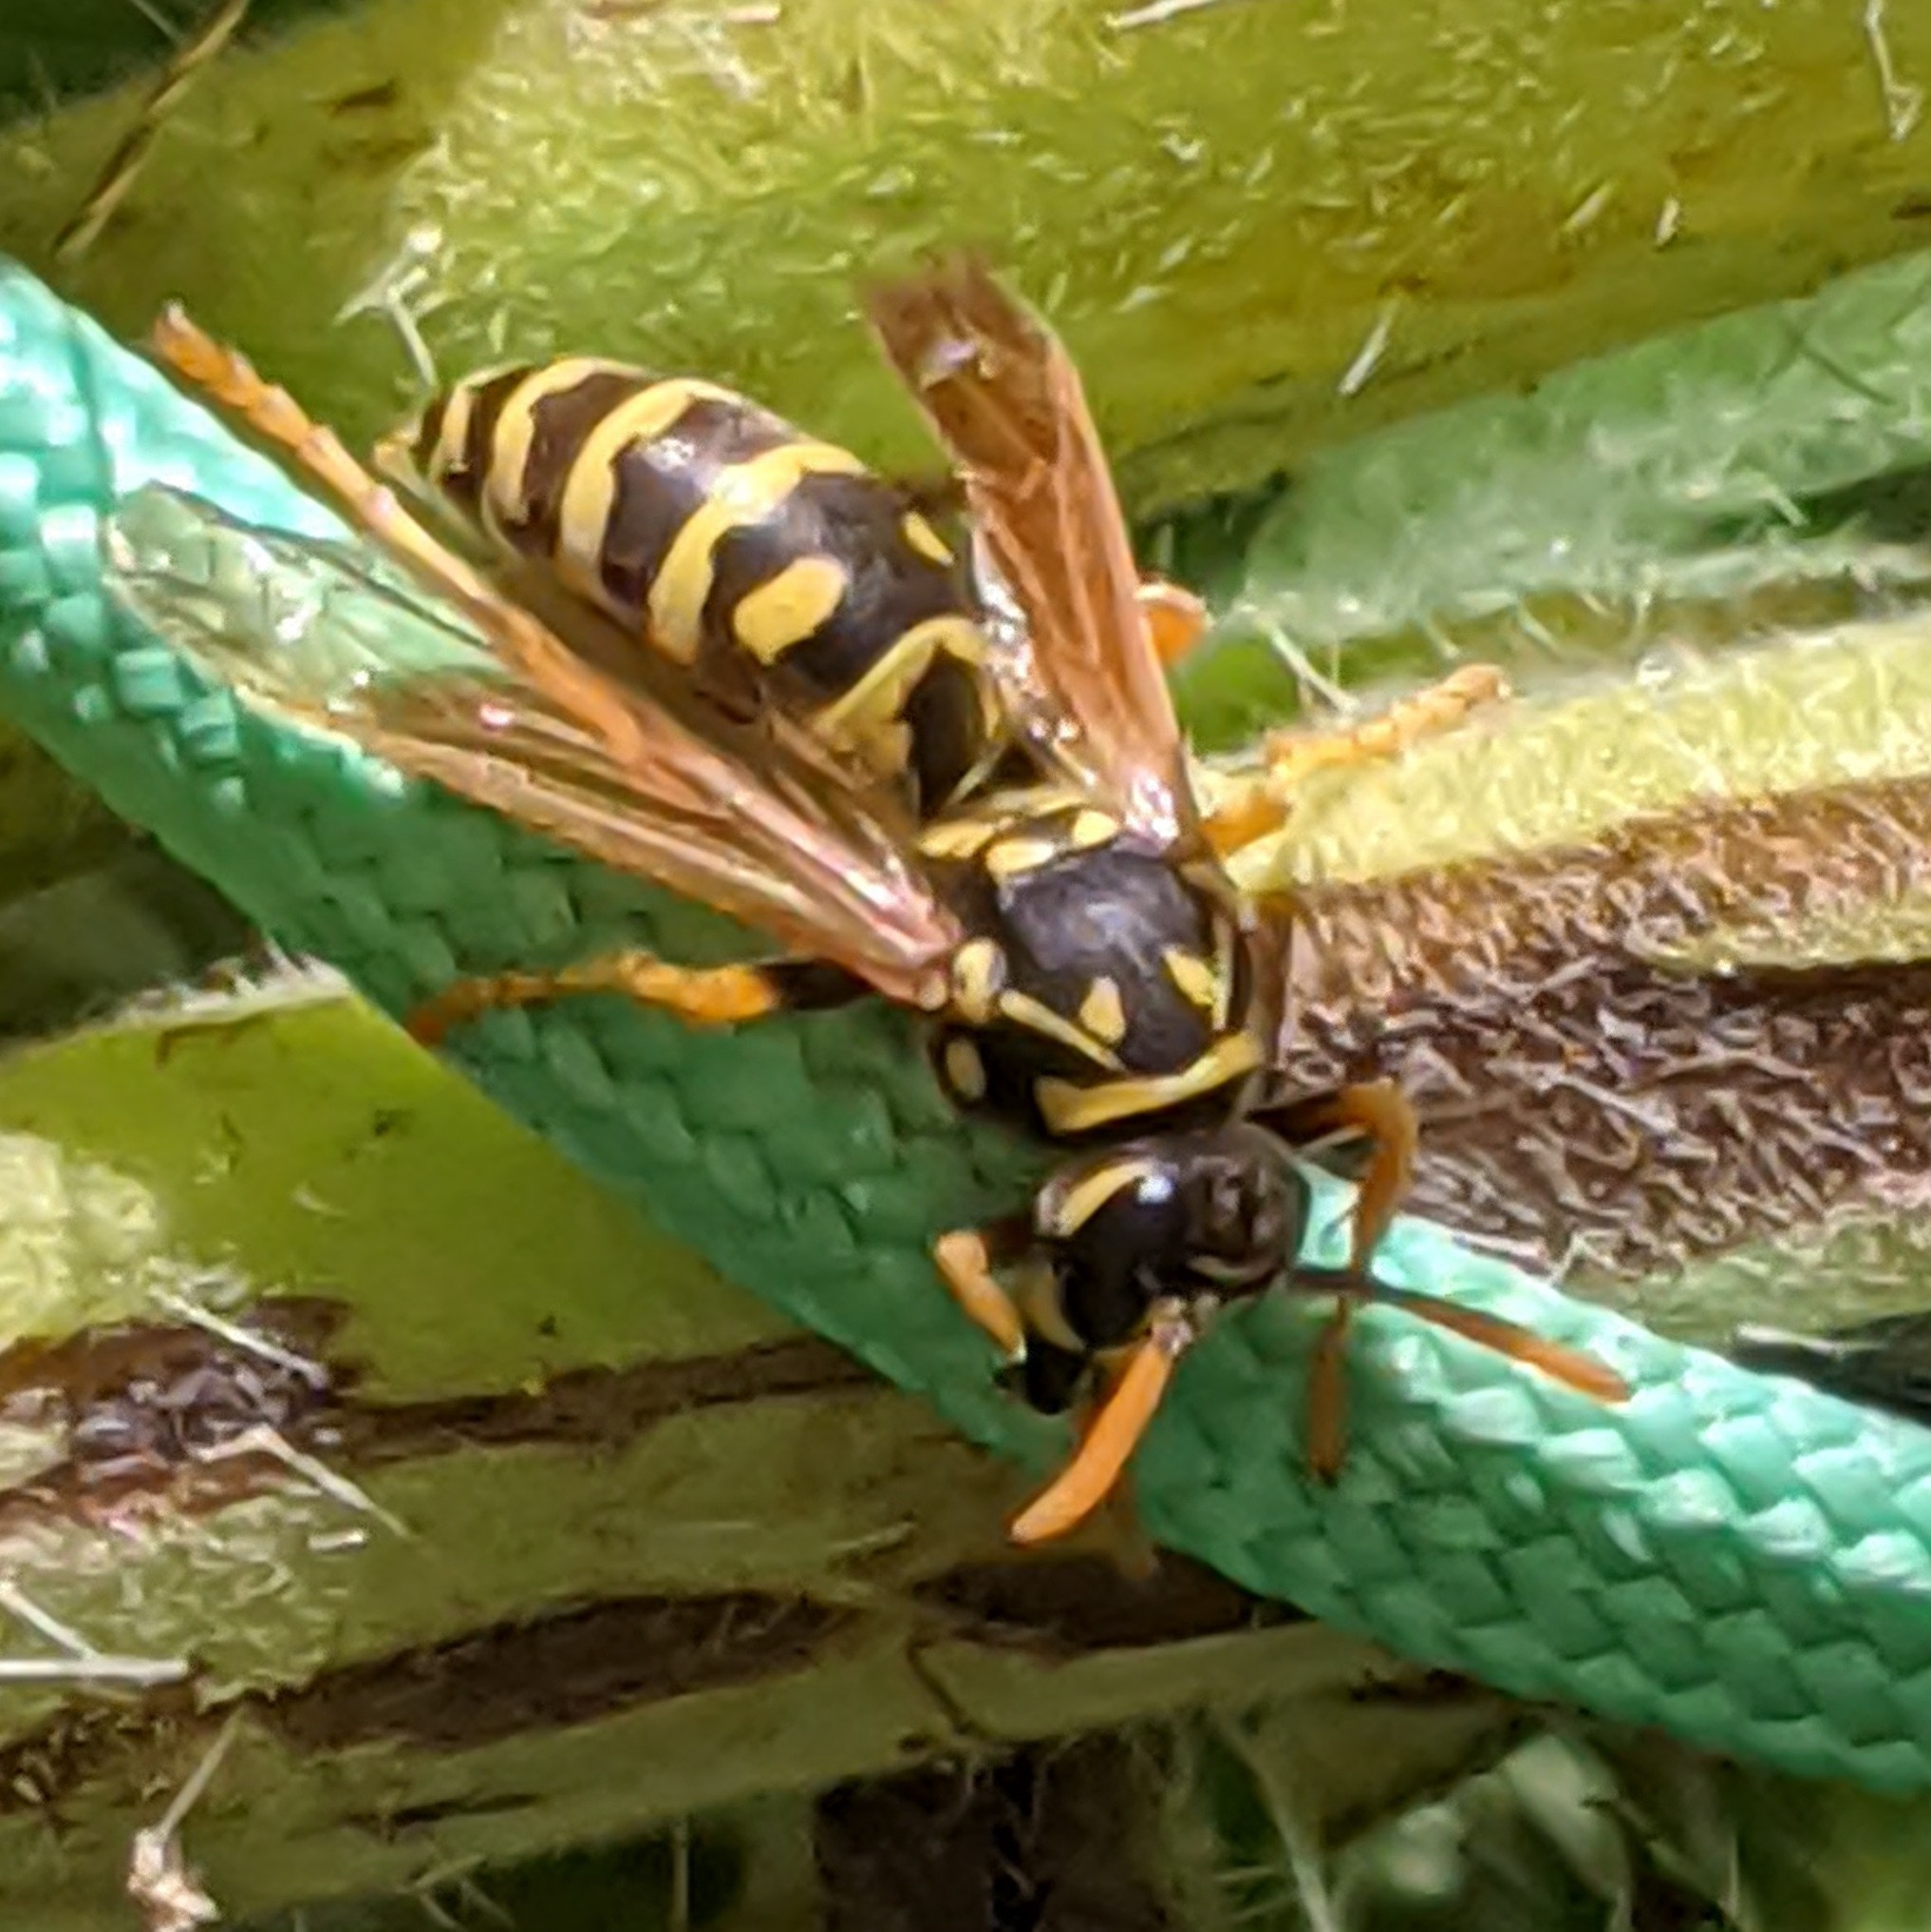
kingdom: Animalia
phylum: Arthropoda
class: Insecta
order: Hymenoptera
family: Eumenidae
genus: Polistes
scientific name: Polistes dominula
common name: Paper wasp
